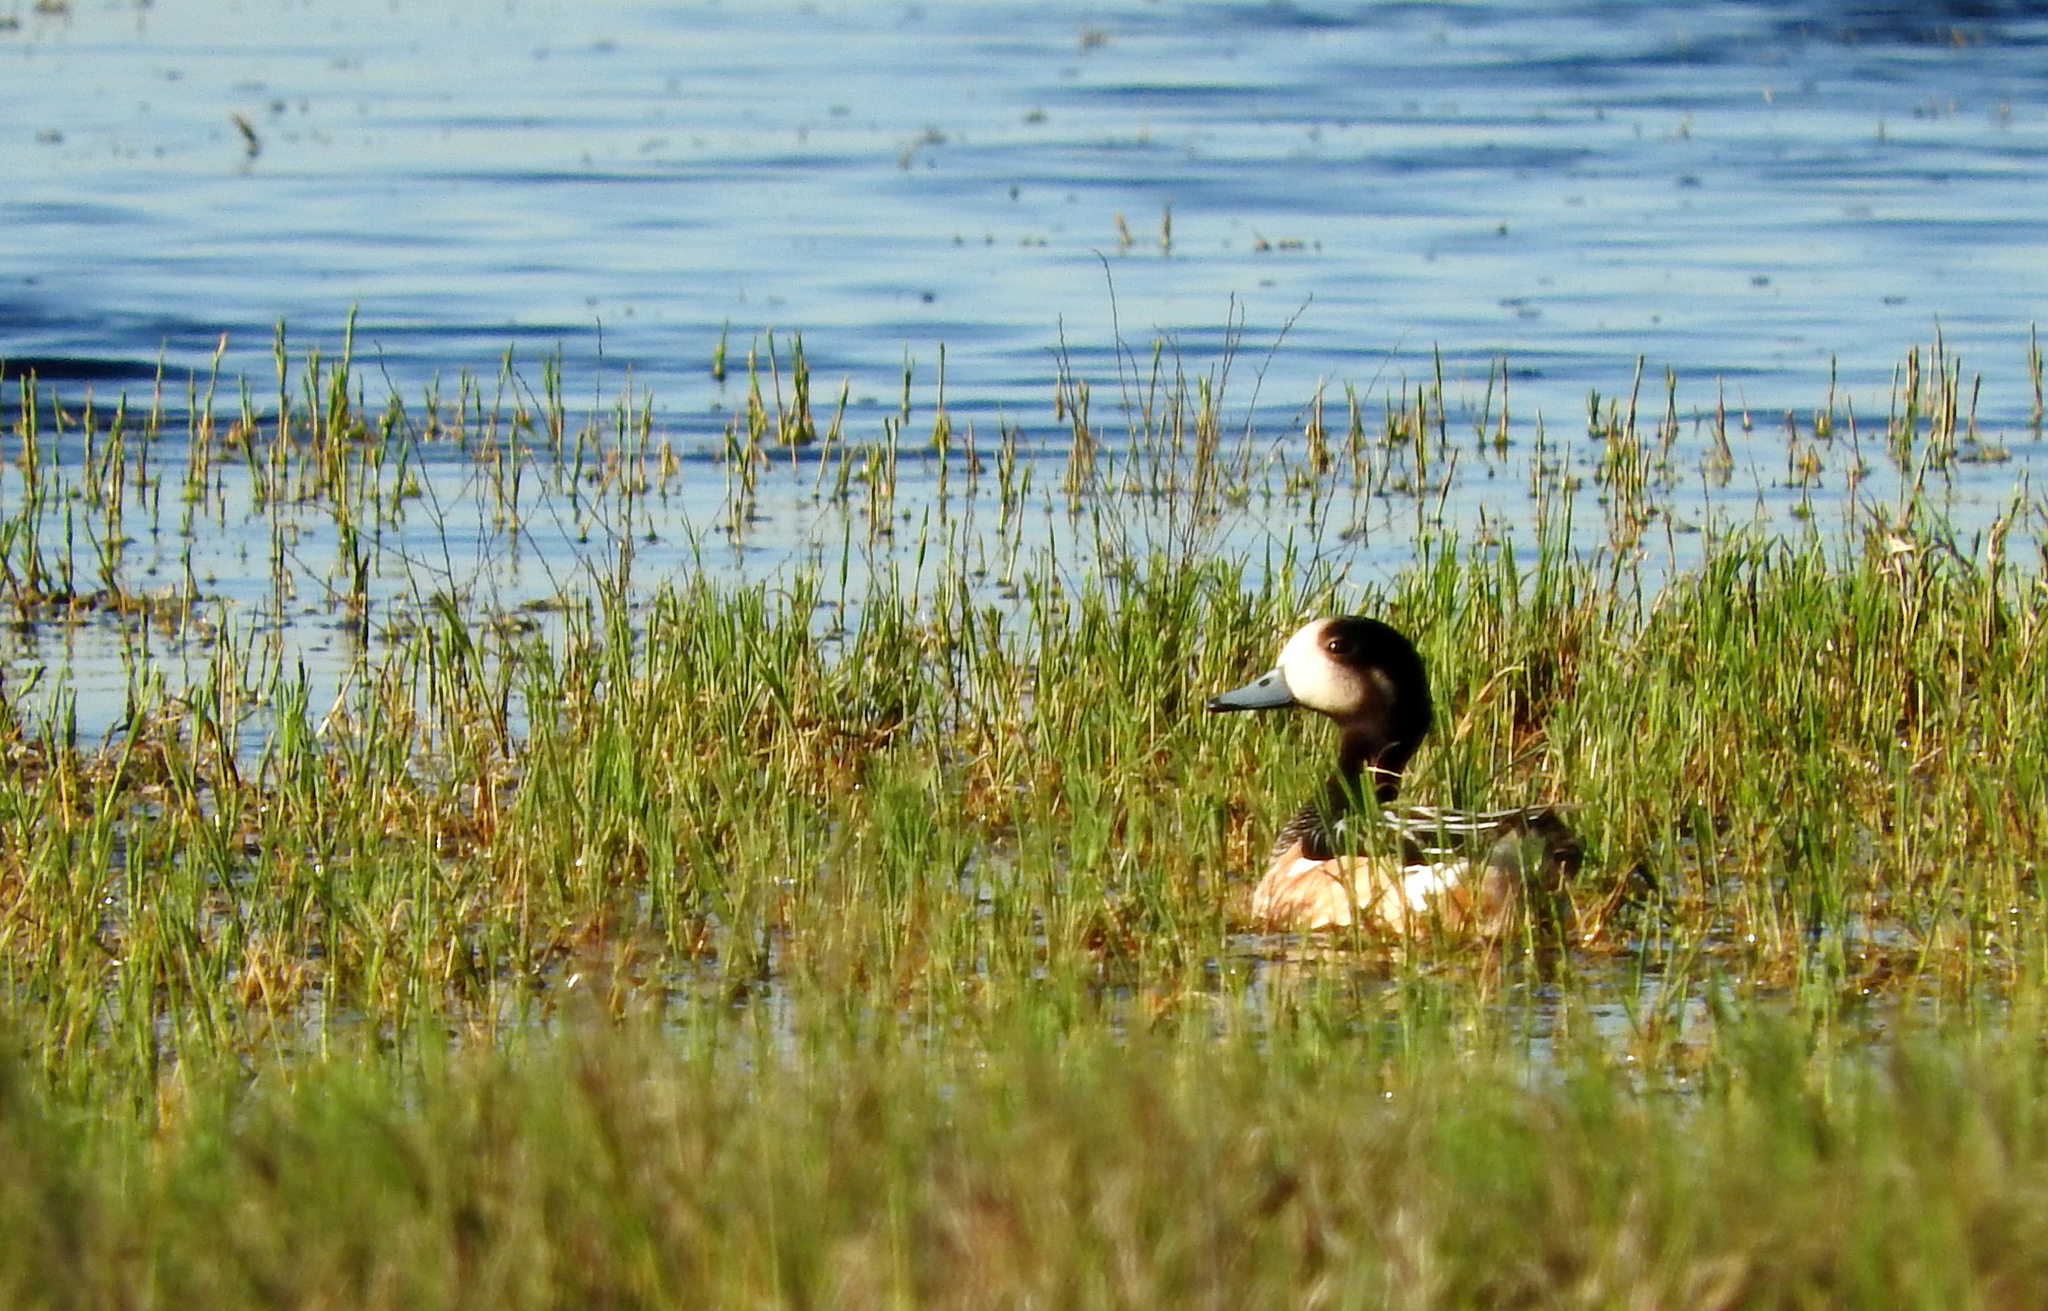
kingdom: Animalia
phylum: Chordata
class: Aves
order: Anseriformes
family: Anatidae
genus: Mareca
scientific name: Mareca sibilatrix
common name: Chiloe wigeon
